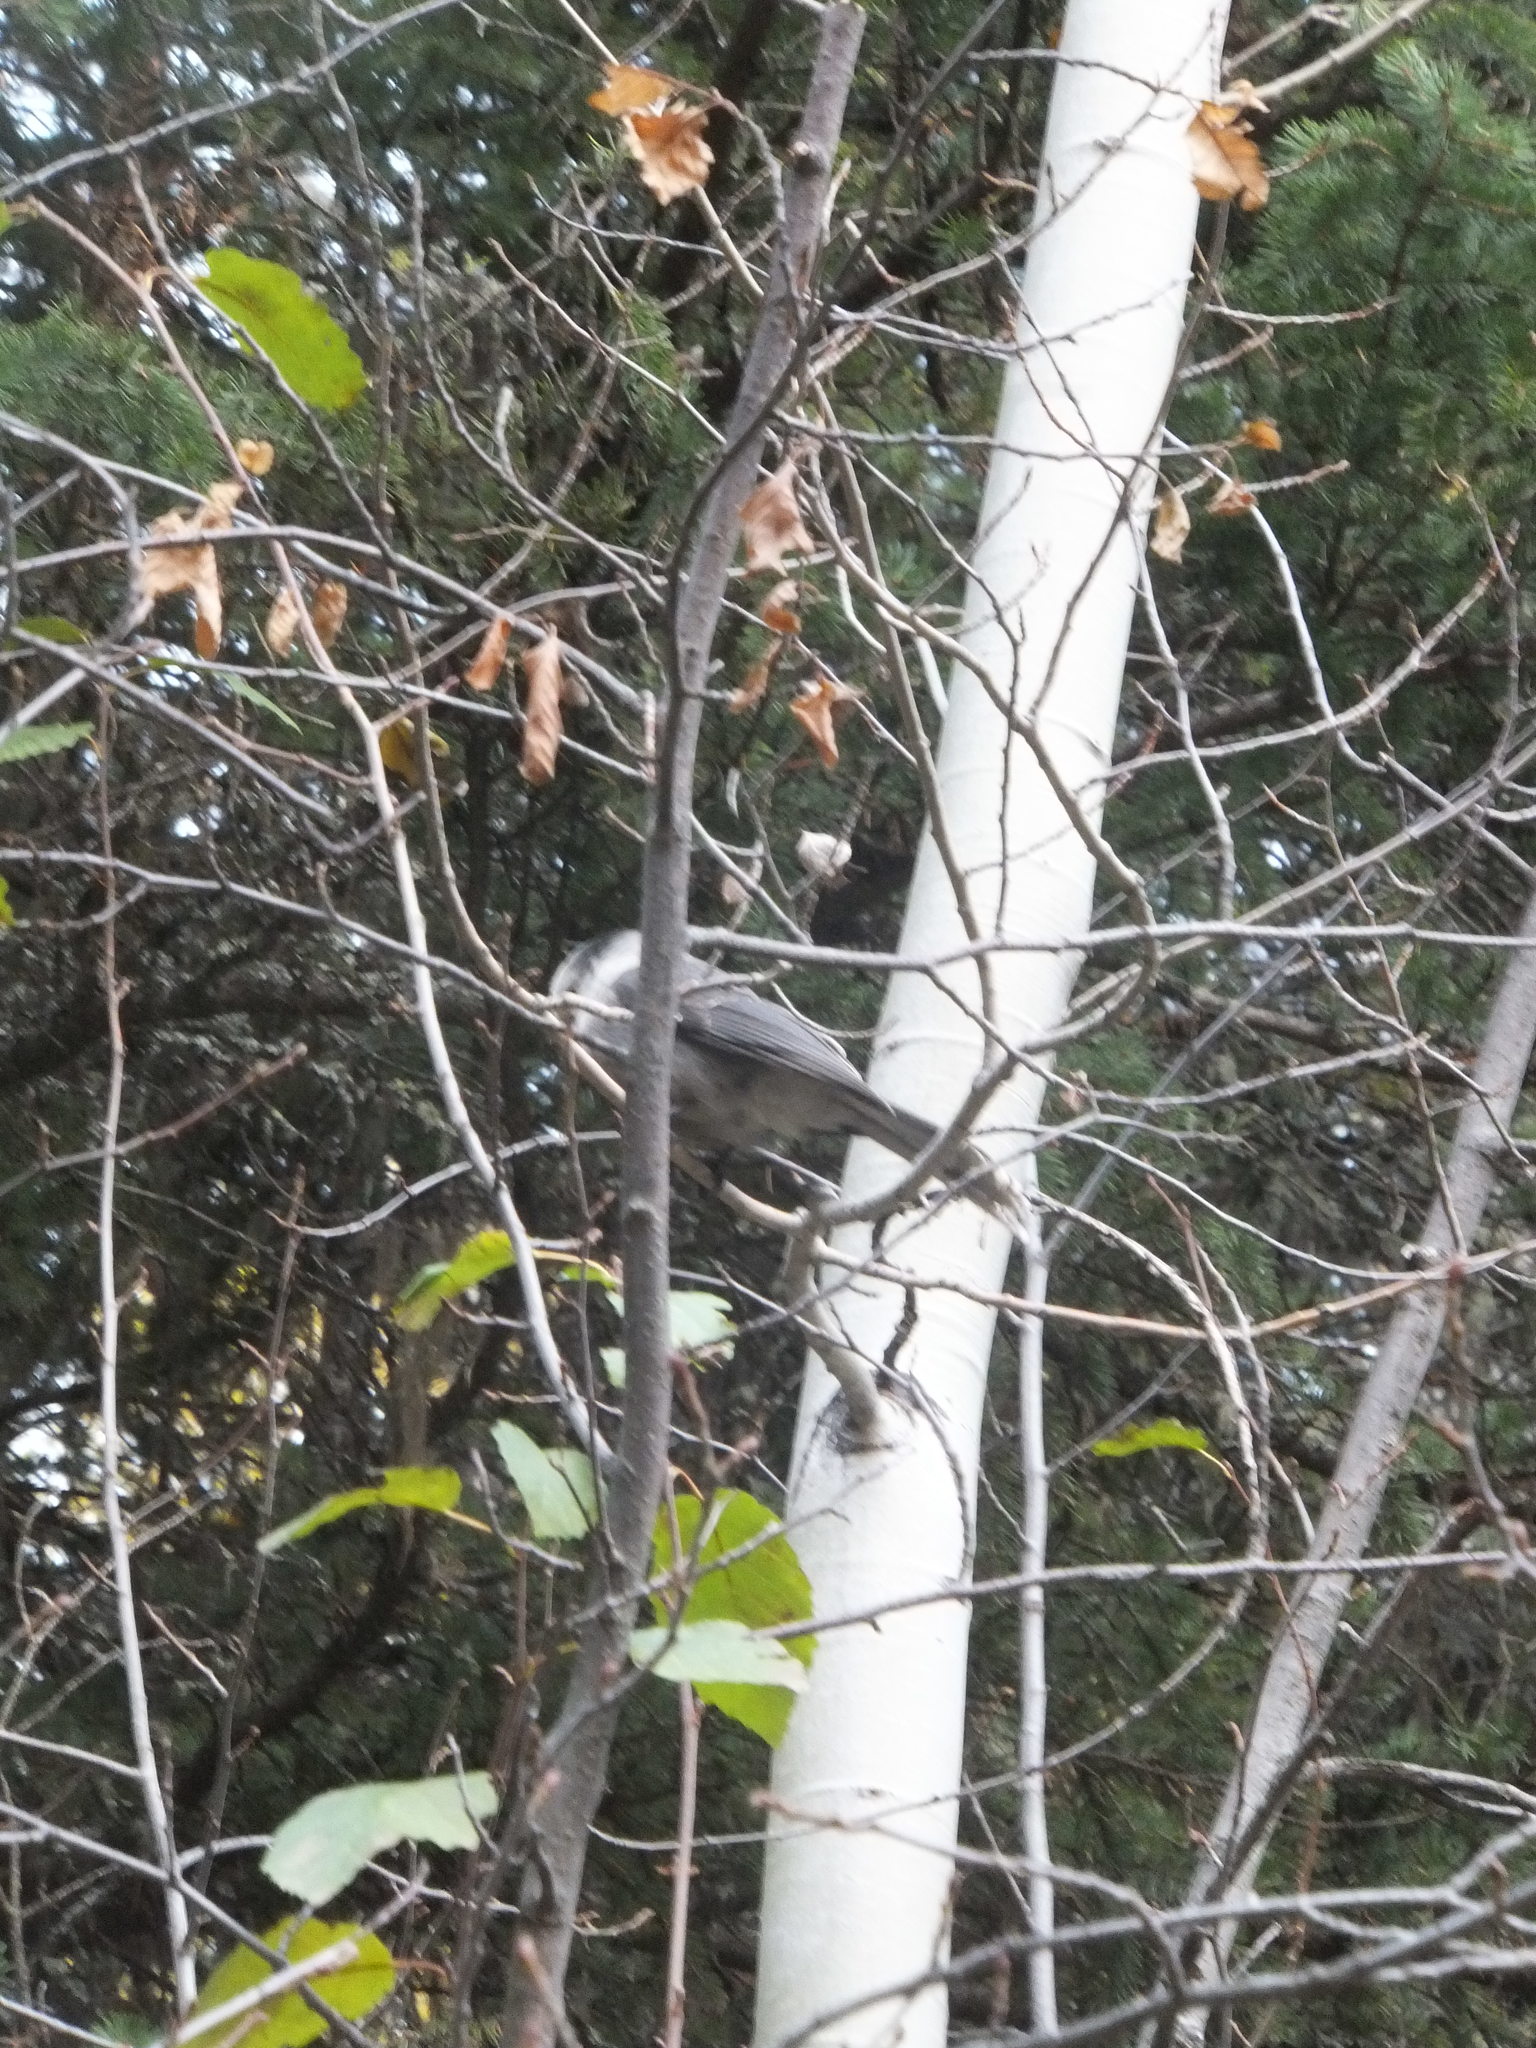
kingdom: Animalia
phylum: Chordata
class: Aves
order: Passeriformes
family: Corvidae
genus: Perisoreus
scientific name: Perisoreus canadensis
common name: Gray jay
